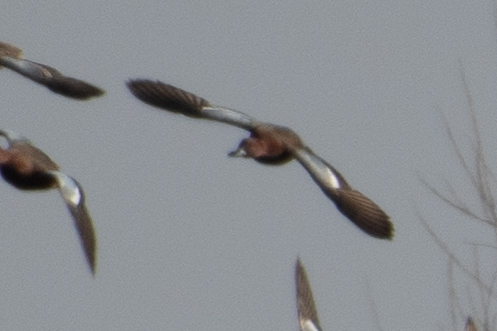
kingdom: Animalia
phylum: Chordata
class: Aves
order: Anseriformes
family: Anatidae
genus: Spatula
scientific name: Spatula cyanoptera
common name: Cinnamon teal
